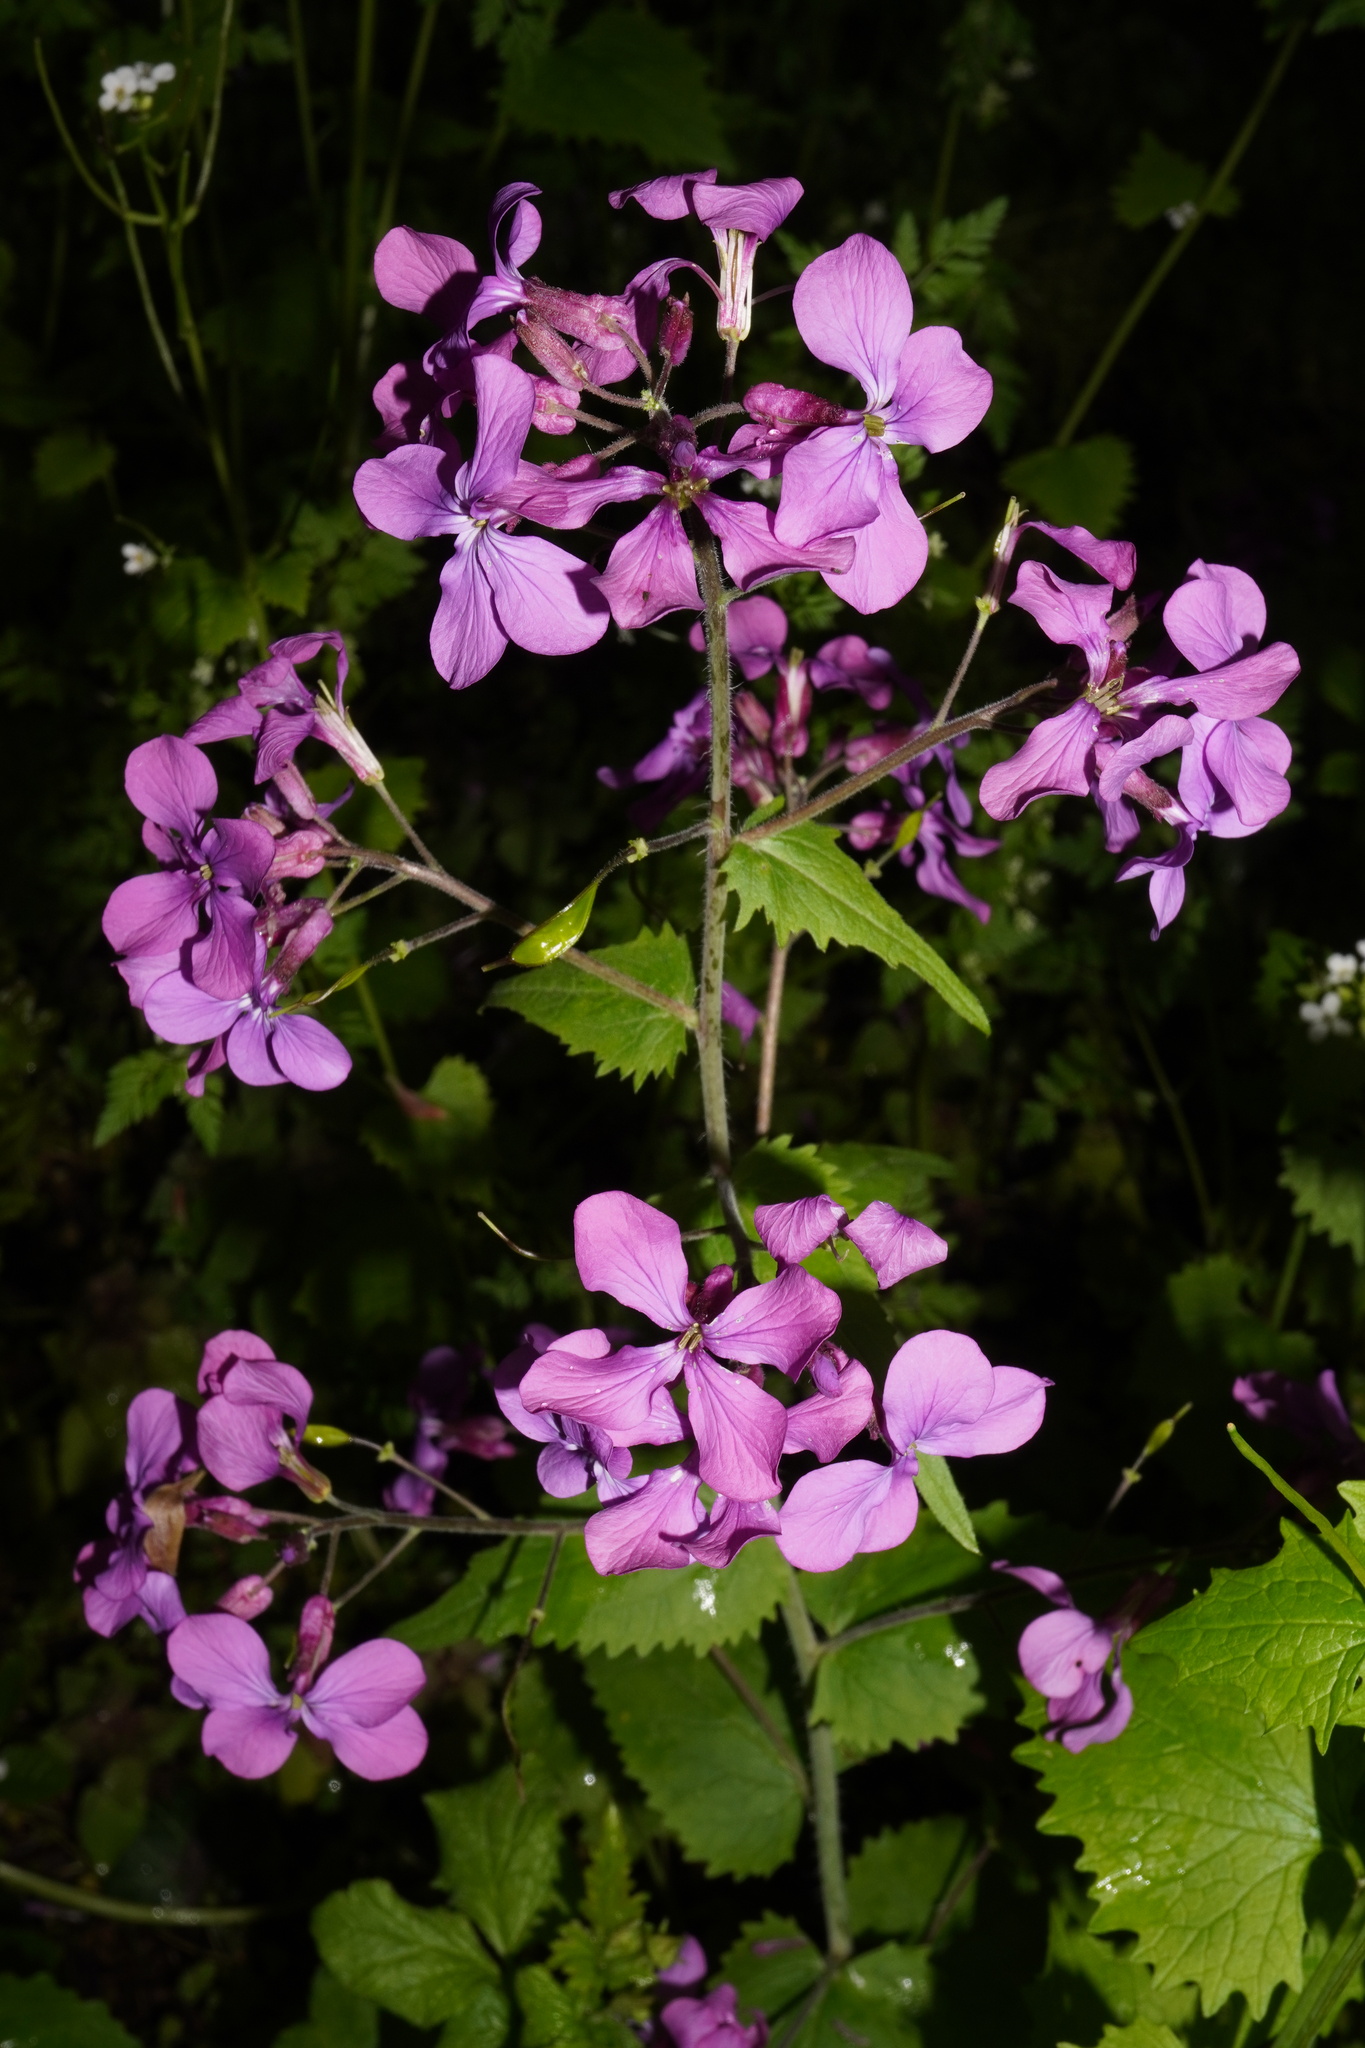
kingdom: Plantae
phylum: Tracheophyta
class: Magnoliopsida
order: Brassicales
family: Brassicaceae
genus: Lunaria
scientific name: Lunaria annua
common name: Honesty
